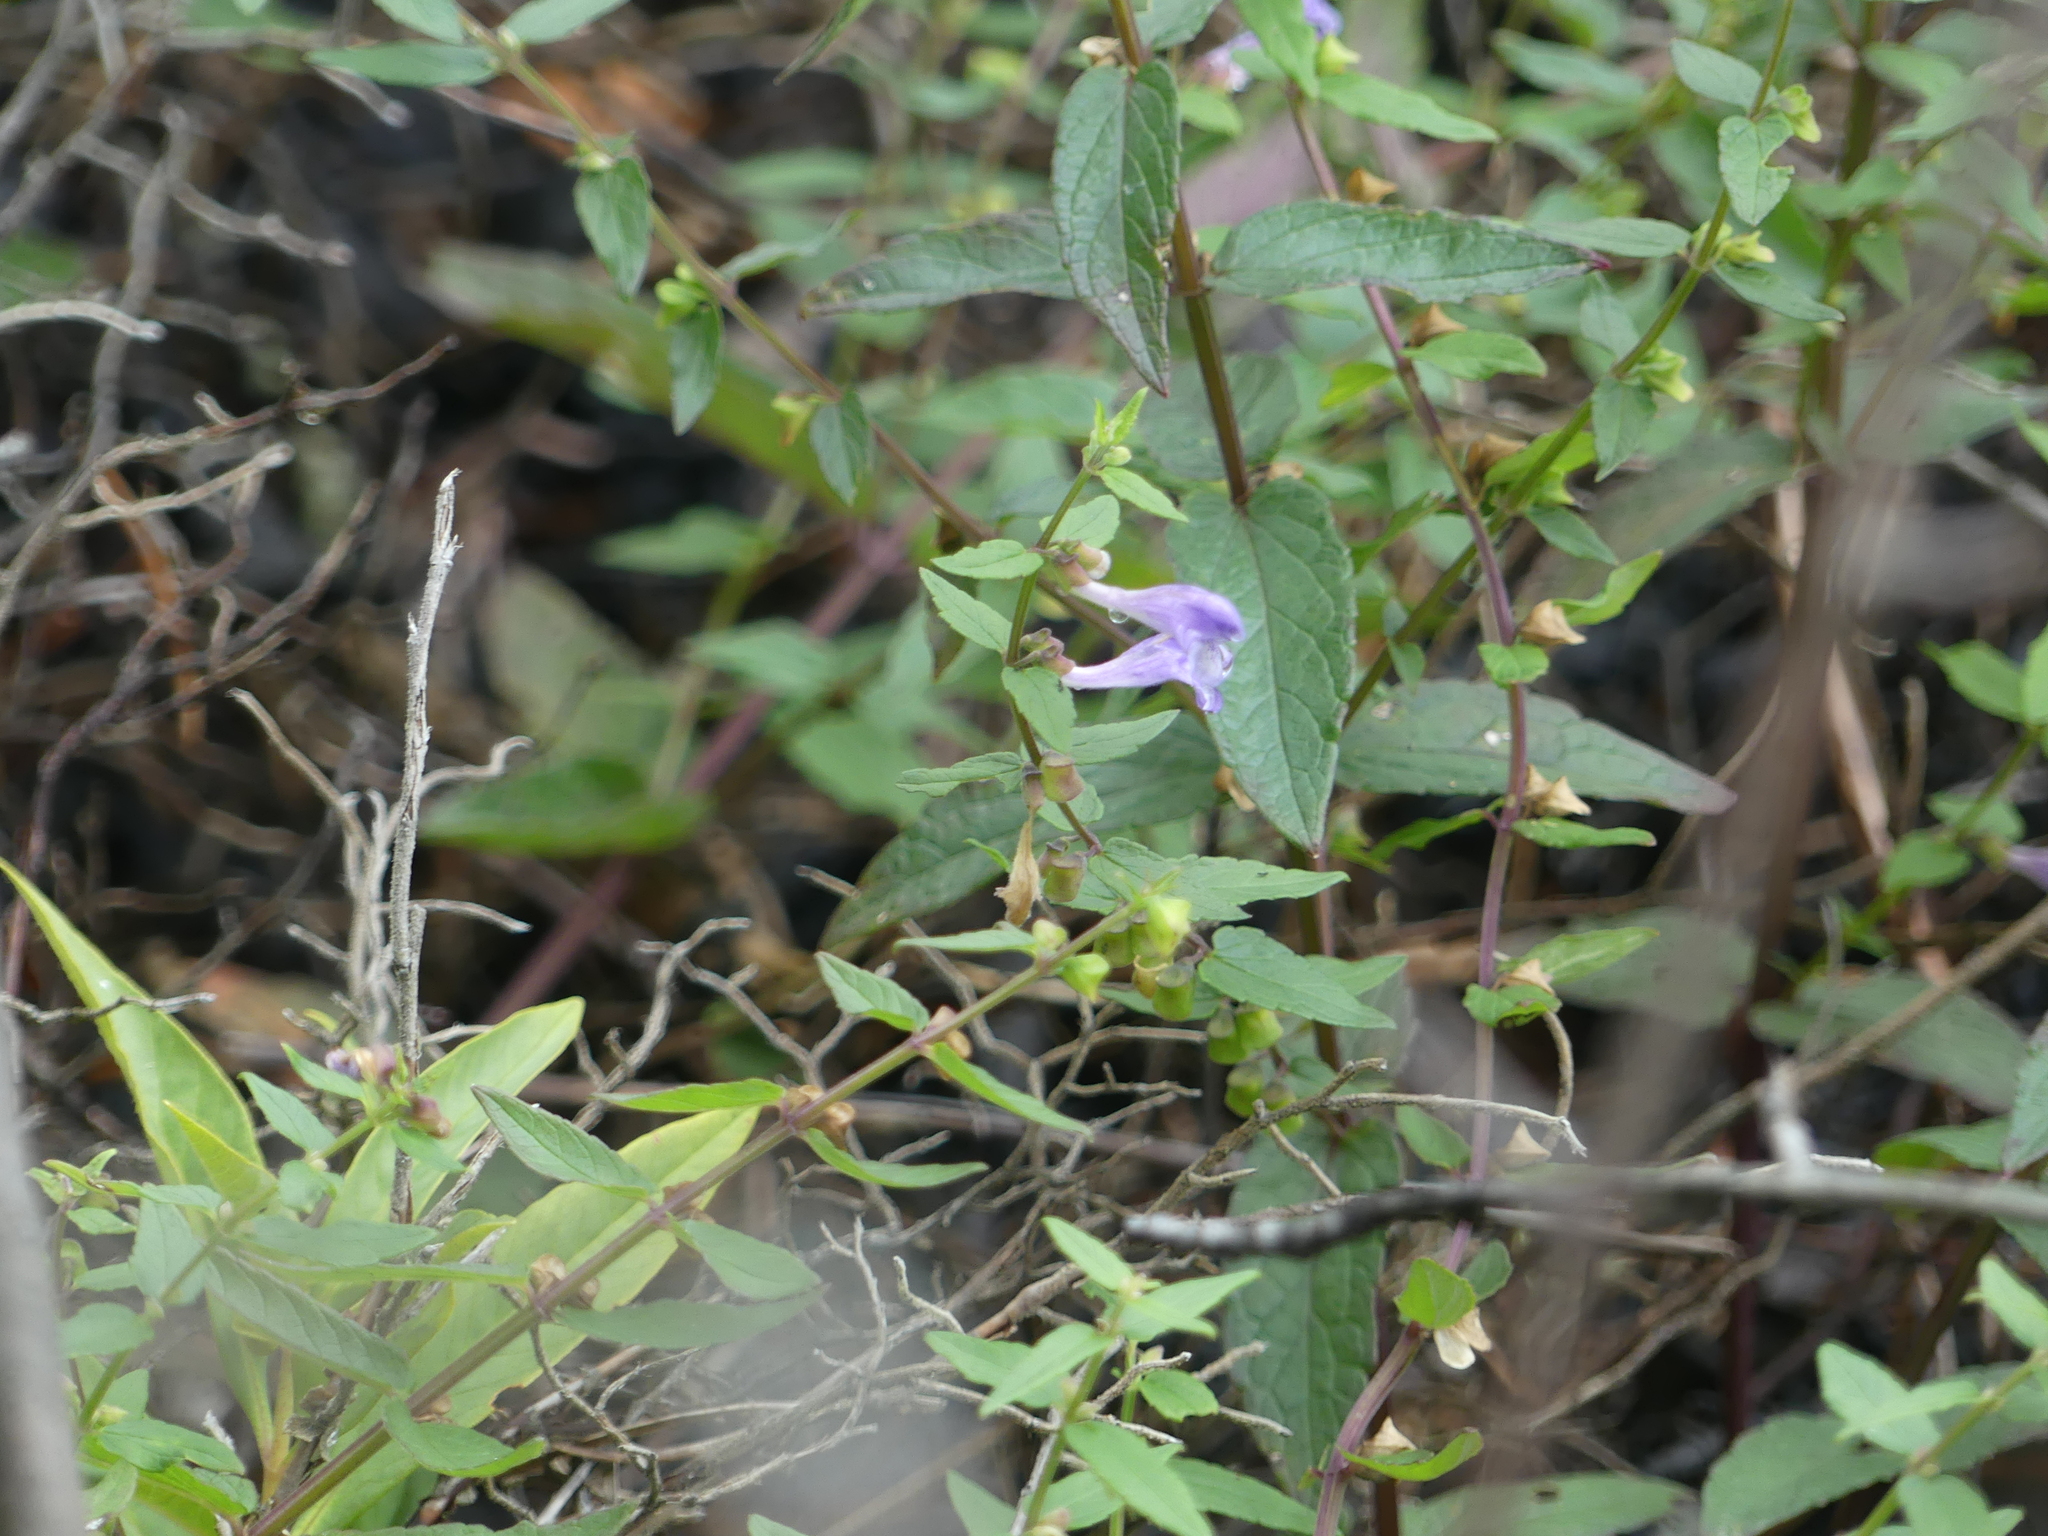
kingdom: Plantae
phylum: Tracheophyta
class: Magnoliopsida
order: Lamiales
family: Lamiaceae
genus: Scutellaria
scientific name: Scutellaria galericulata
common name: Skullcap
